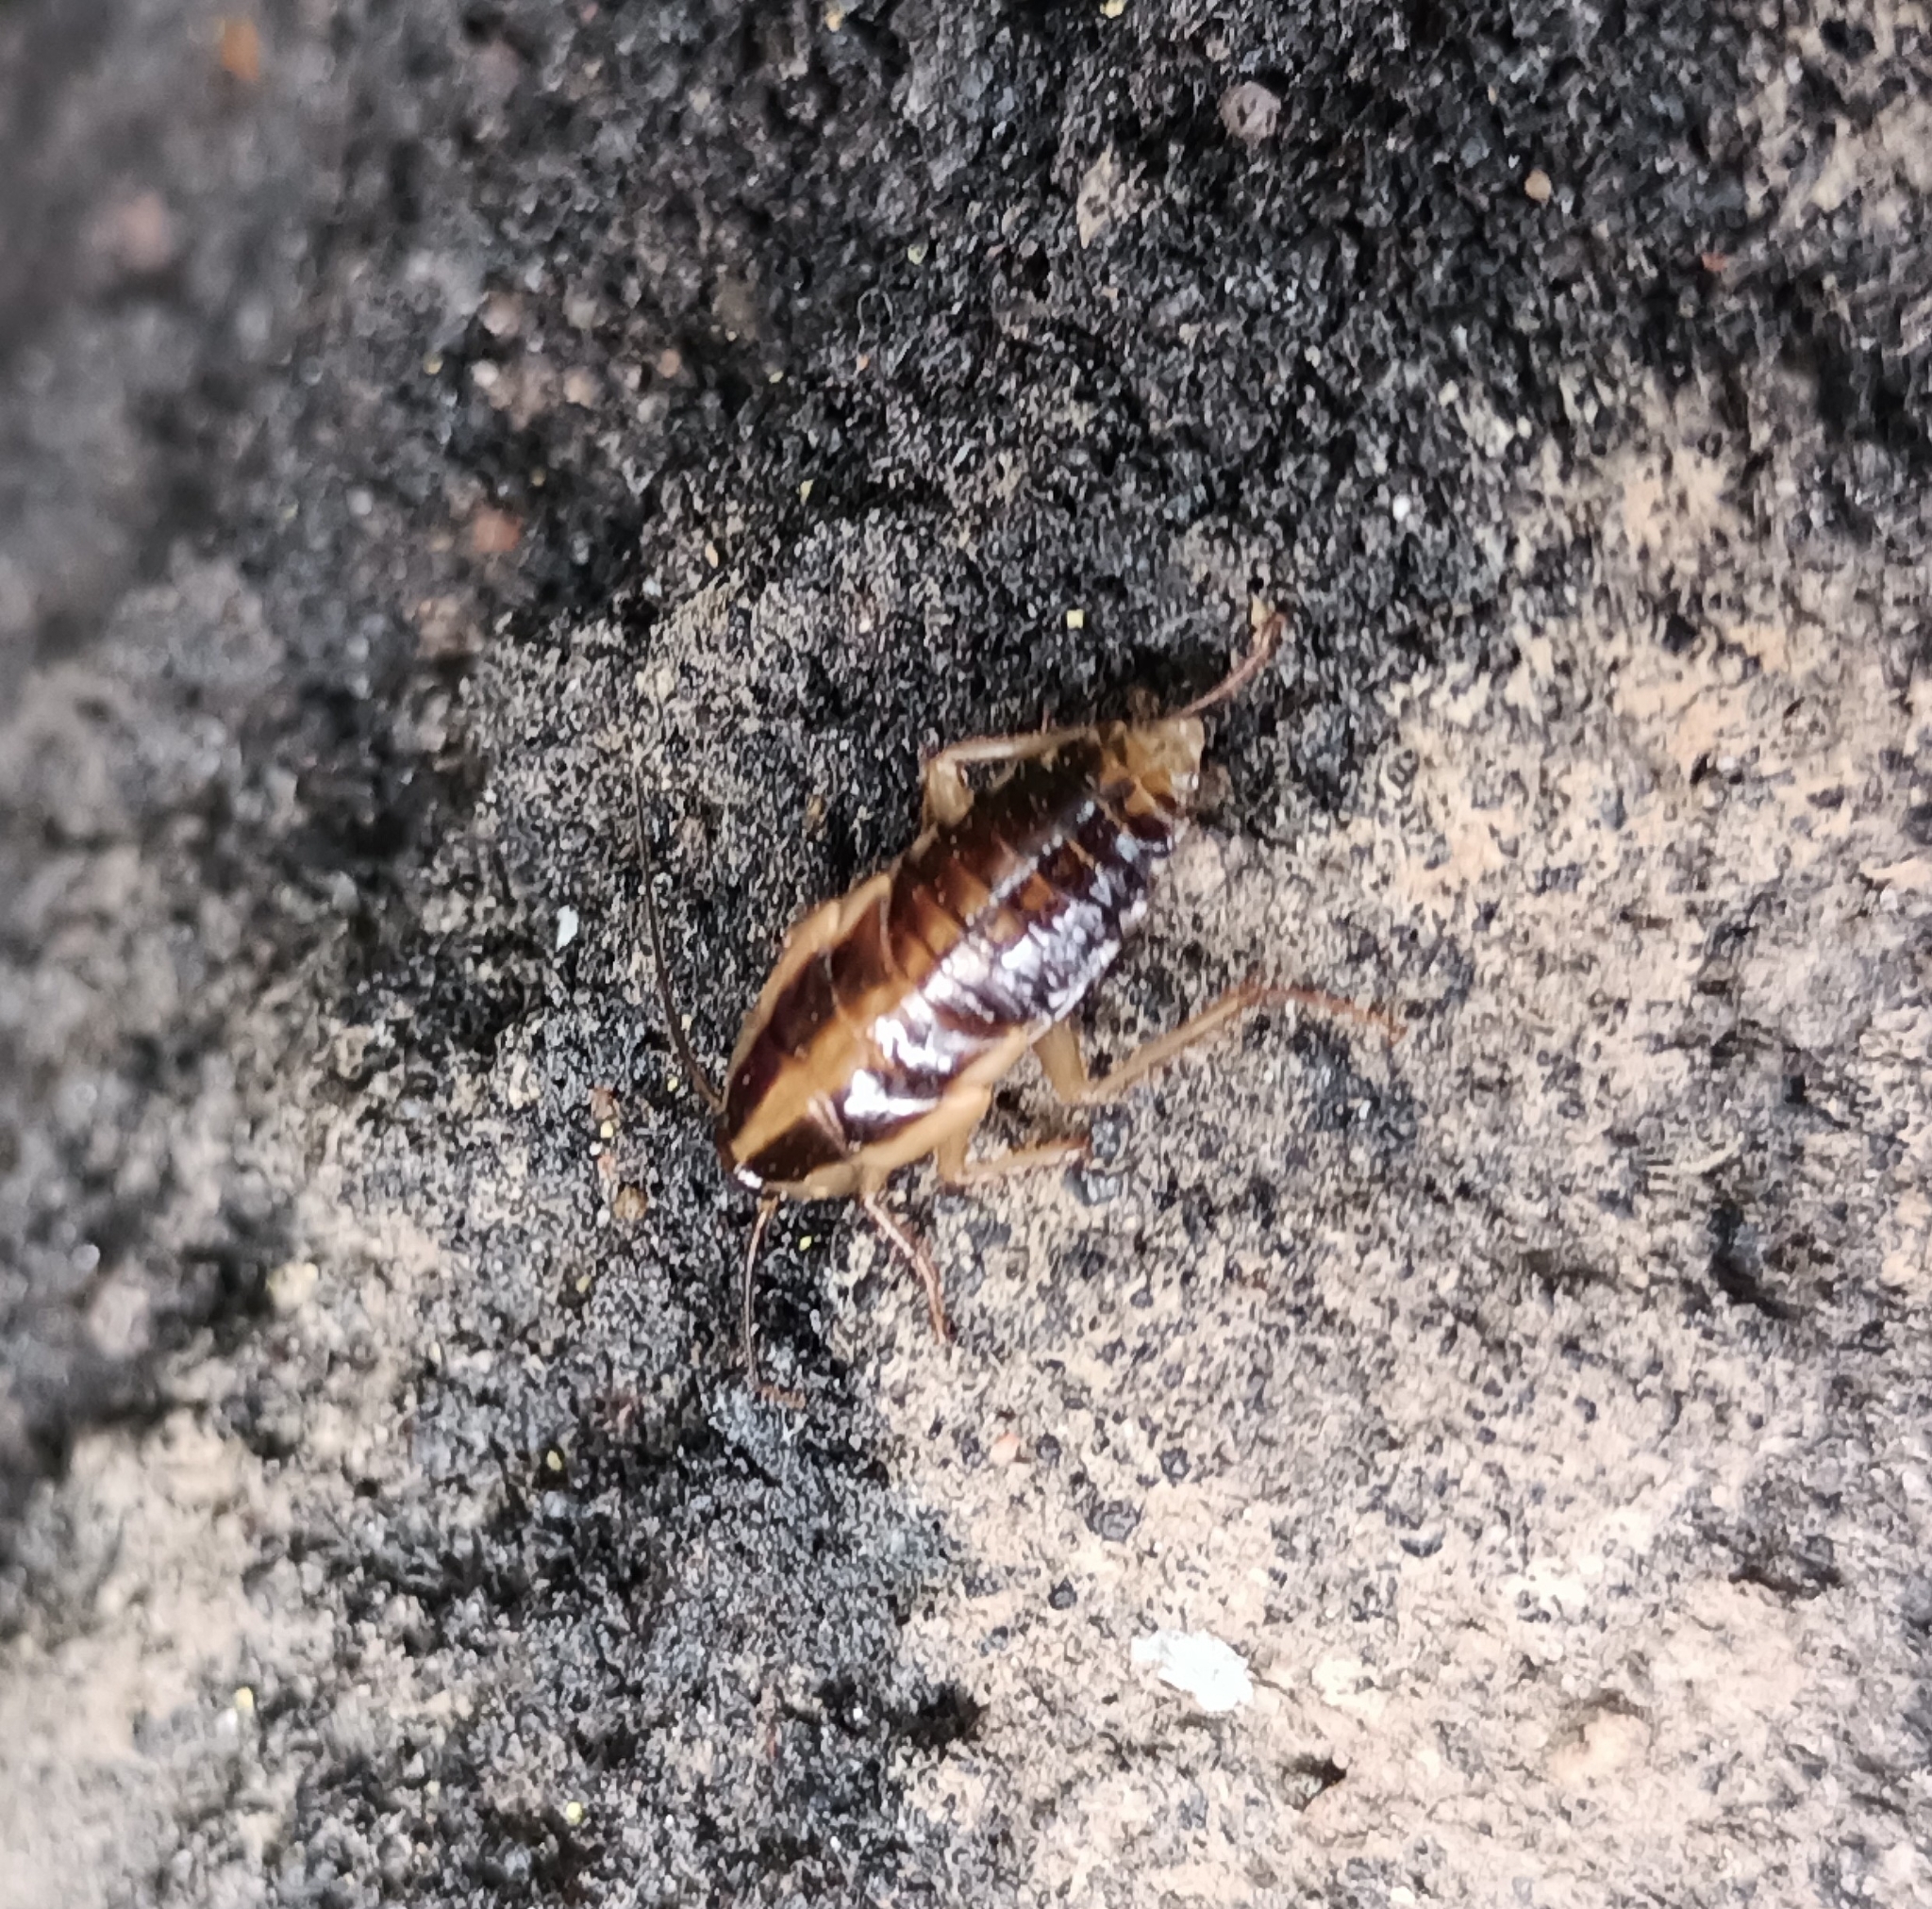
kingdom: Animalia
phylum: Arthropoda
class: Insecta
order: Blattodea
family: Ectobiidae
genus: Blattella
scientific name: Blattella germanica
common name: German cockroach
